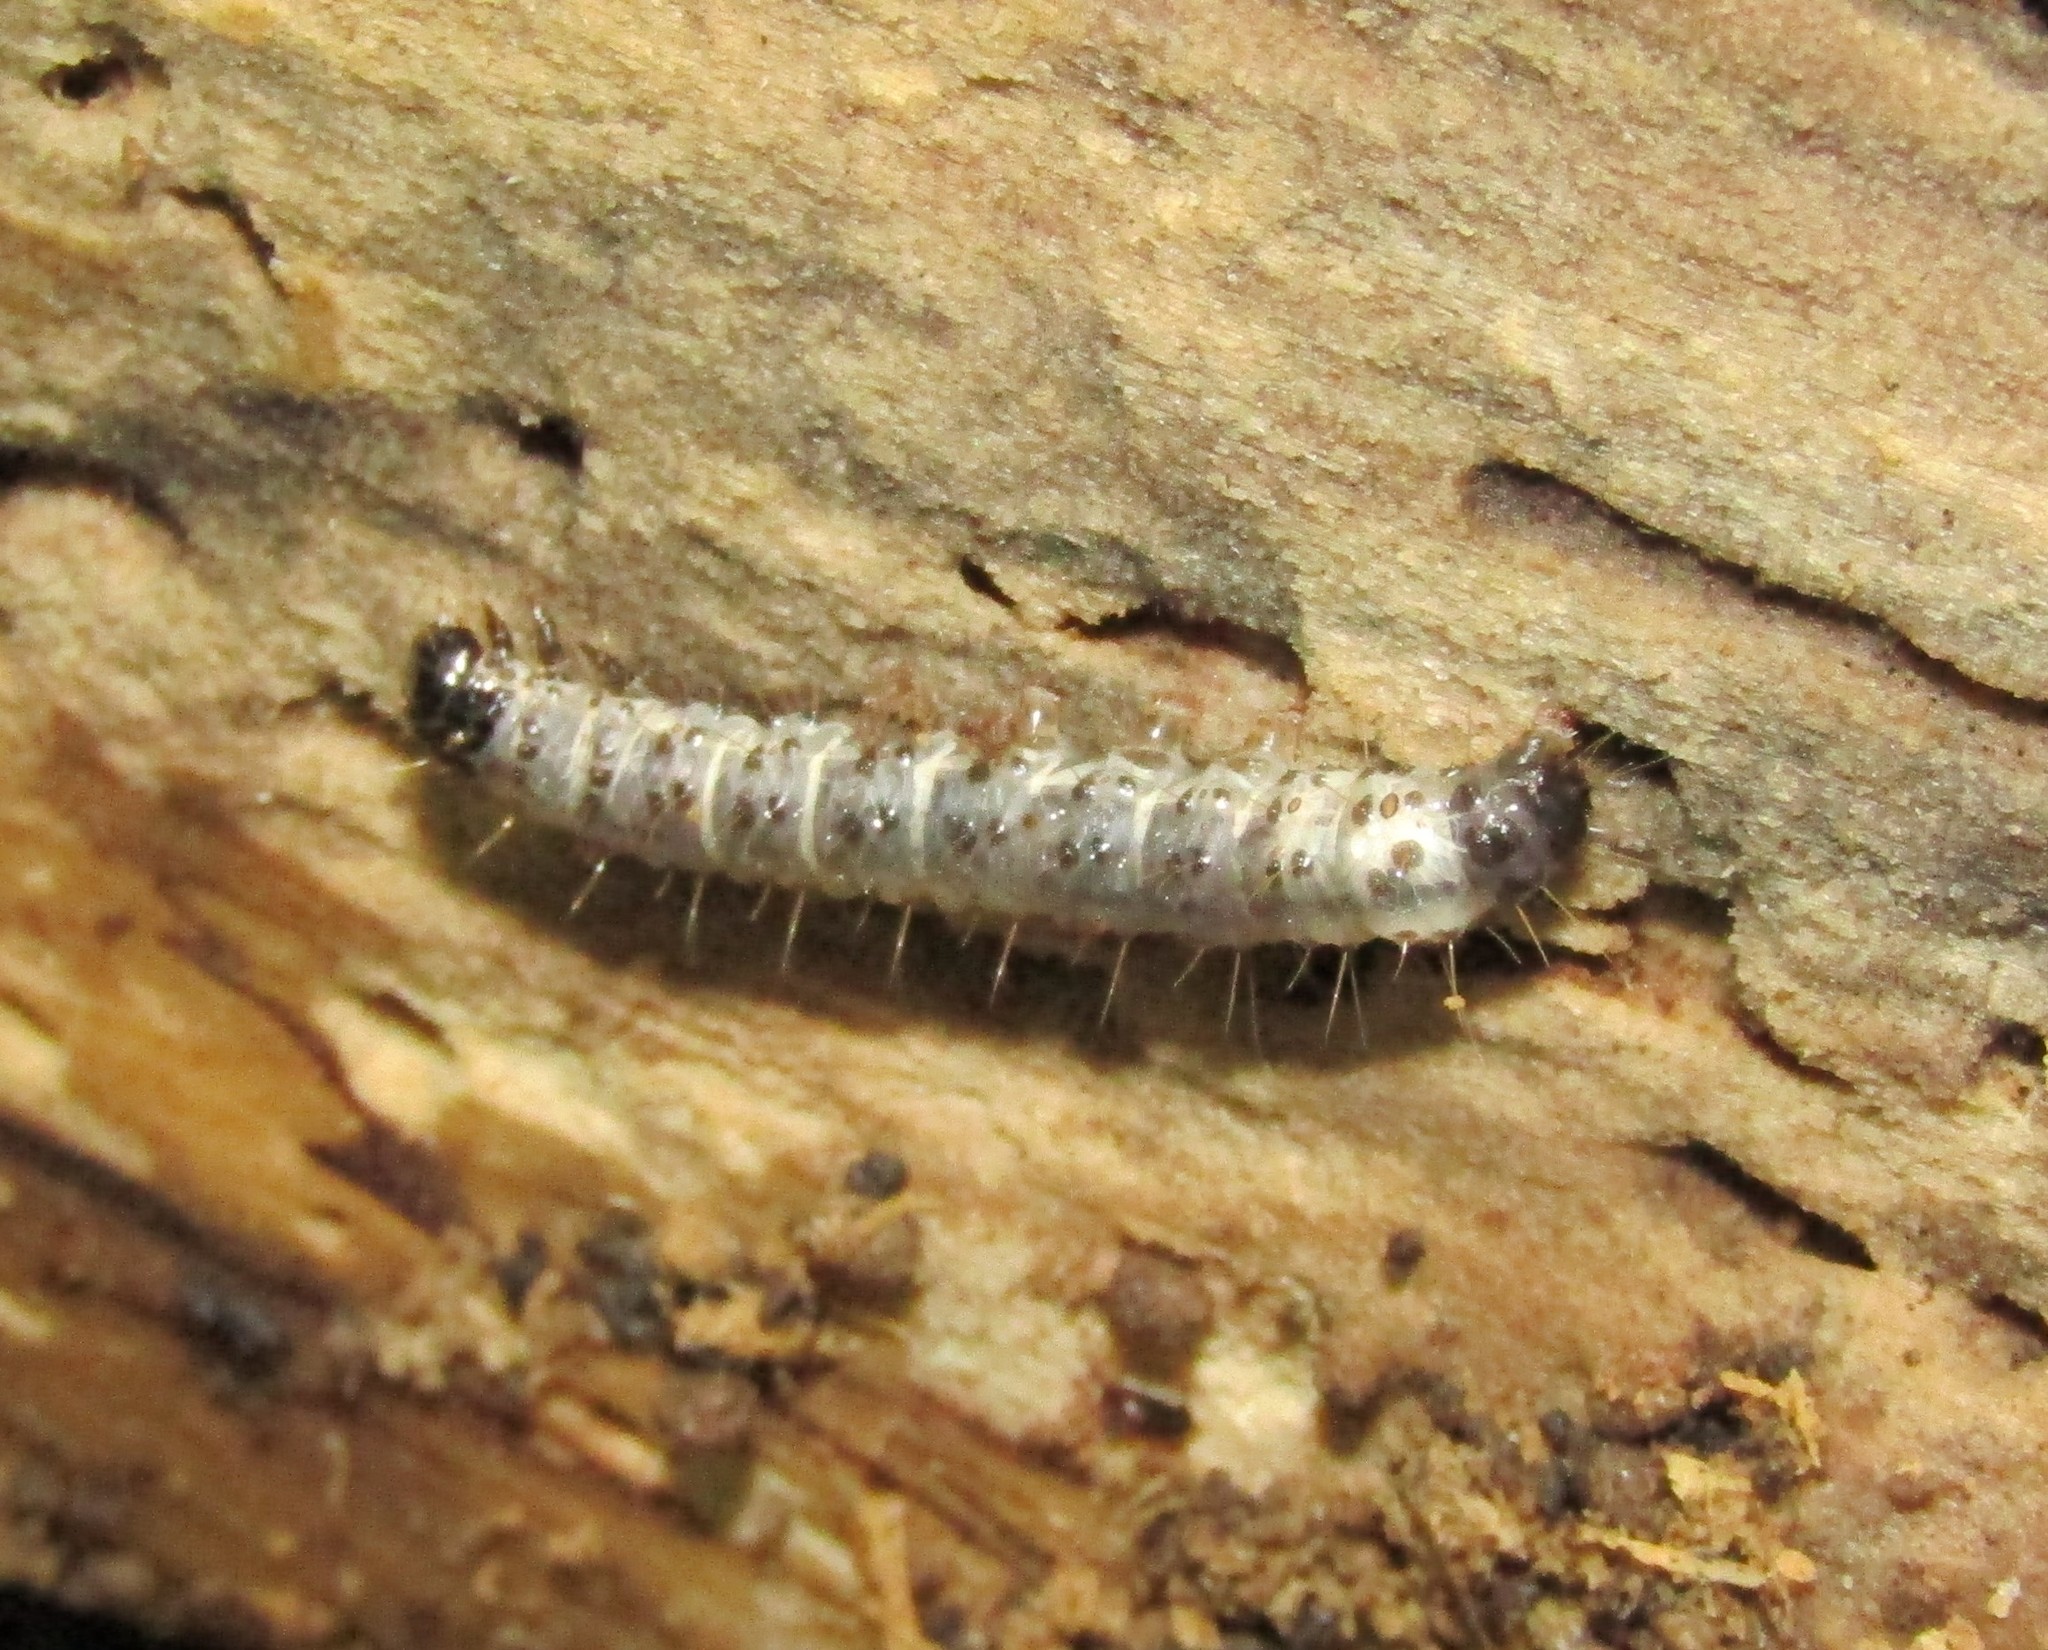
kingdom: Animalia
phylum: Arthropoda
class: Insecta
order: Lepidoptera
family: Erebidae
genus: Scolecocampa
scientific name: Scolecocampa liburna
